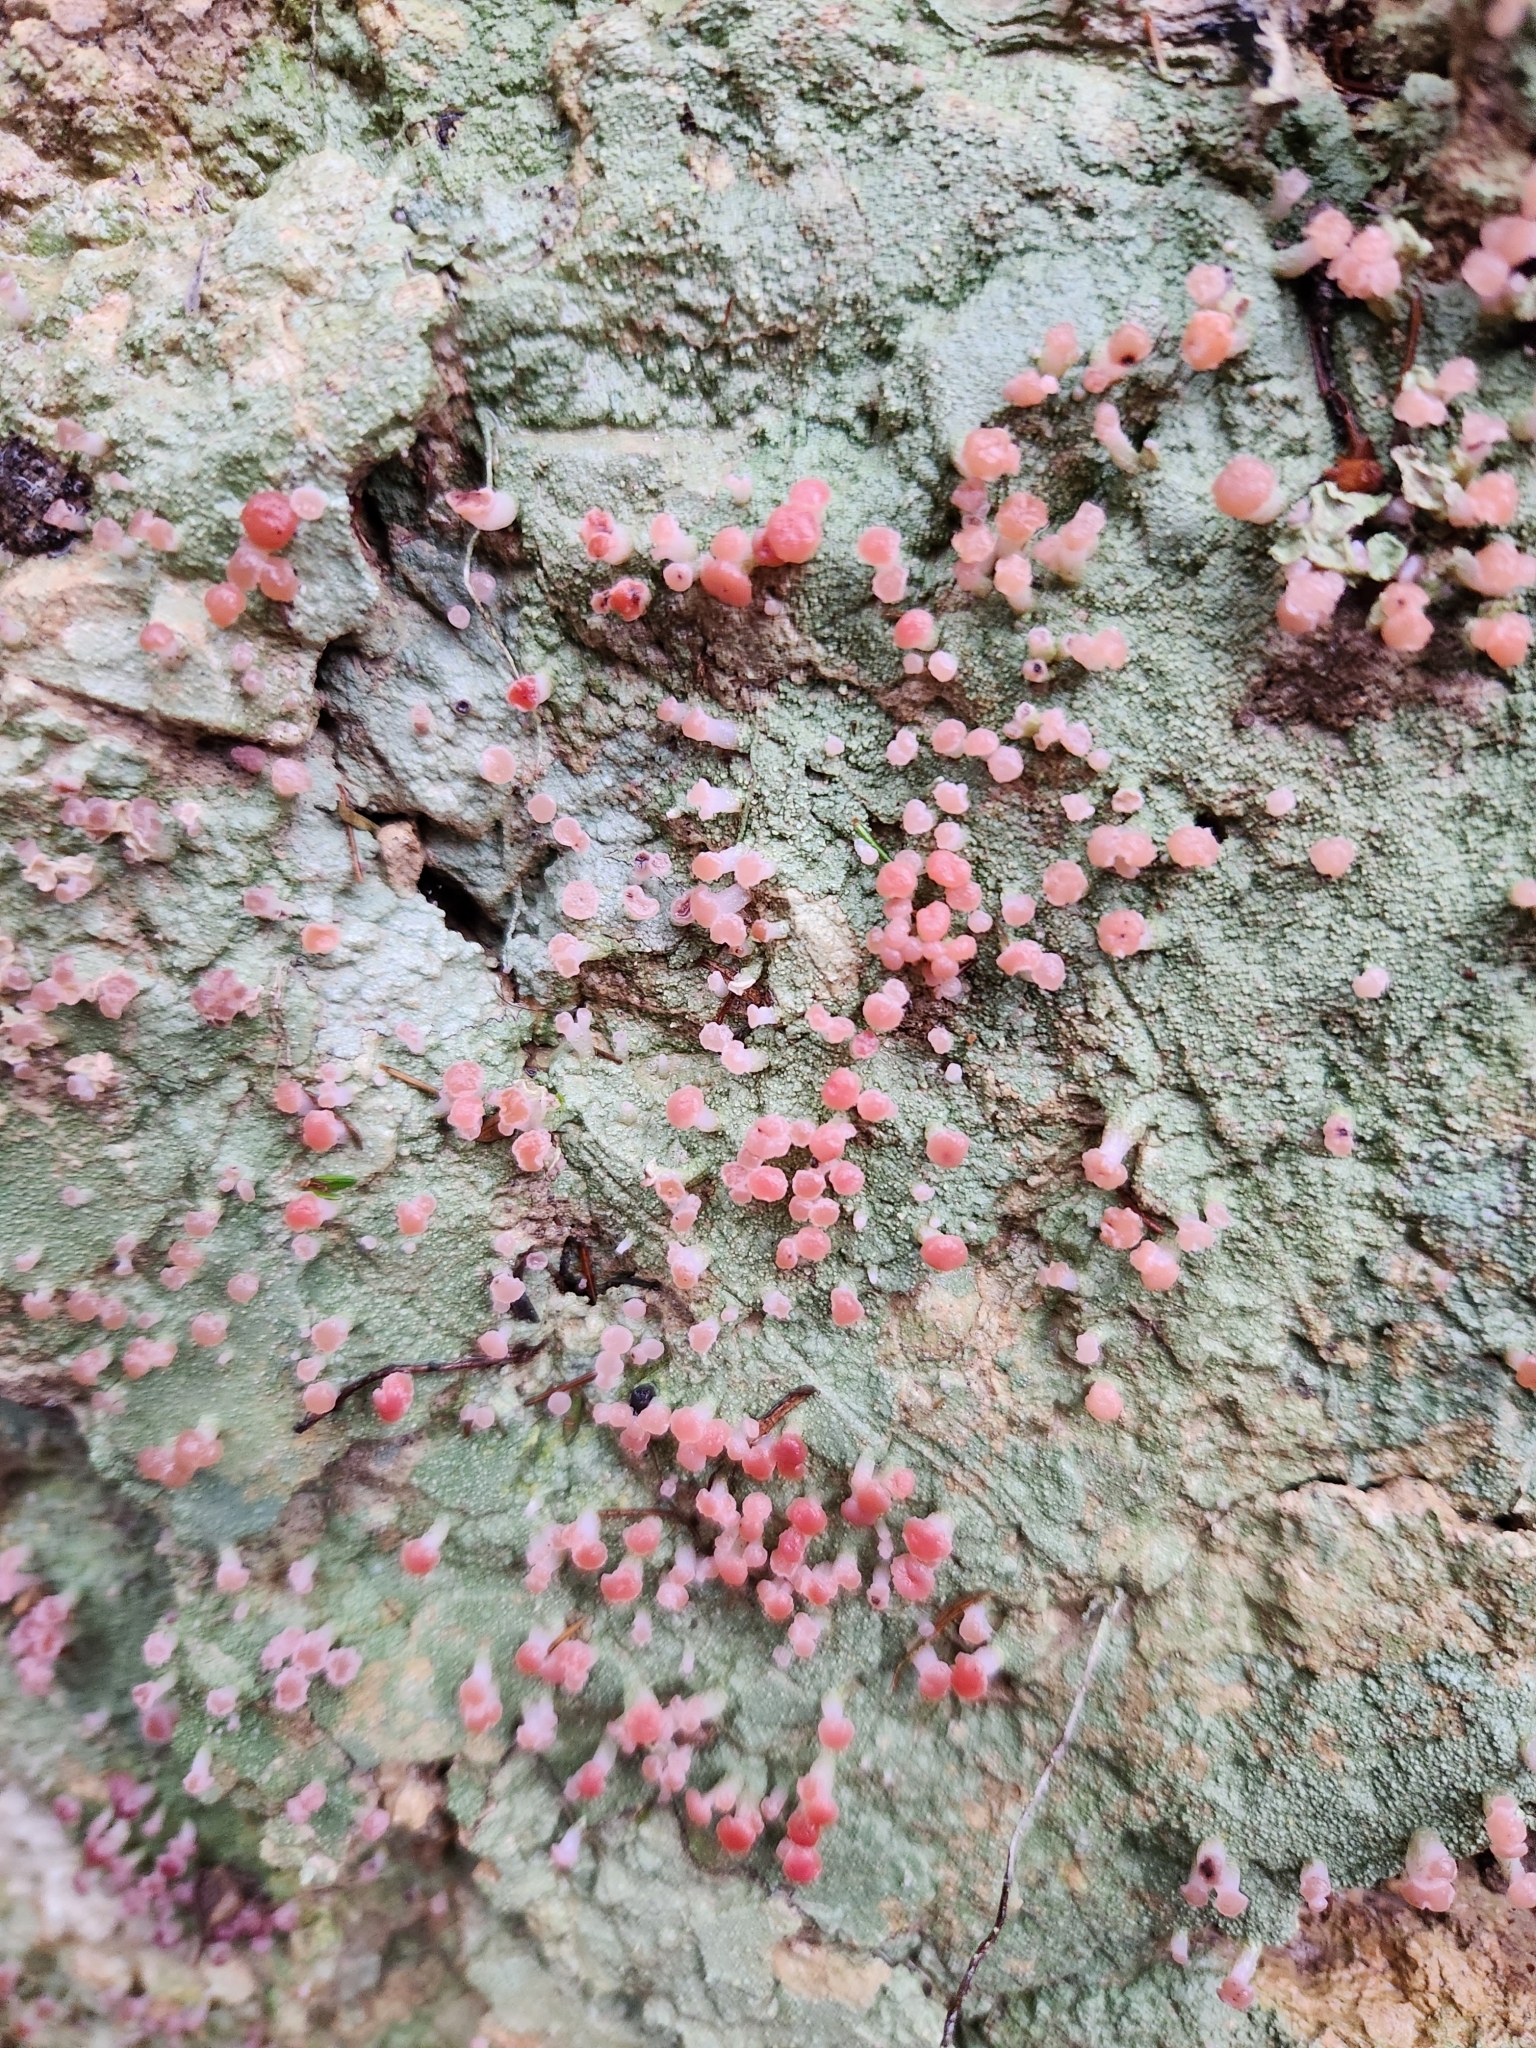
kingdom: Fungi
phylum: Ascomycota
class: Lecanoromycetes
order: Baeomycetales
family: Baeomycetaceae
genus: Baeomyces
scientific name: Baeomyces heteromorphus
